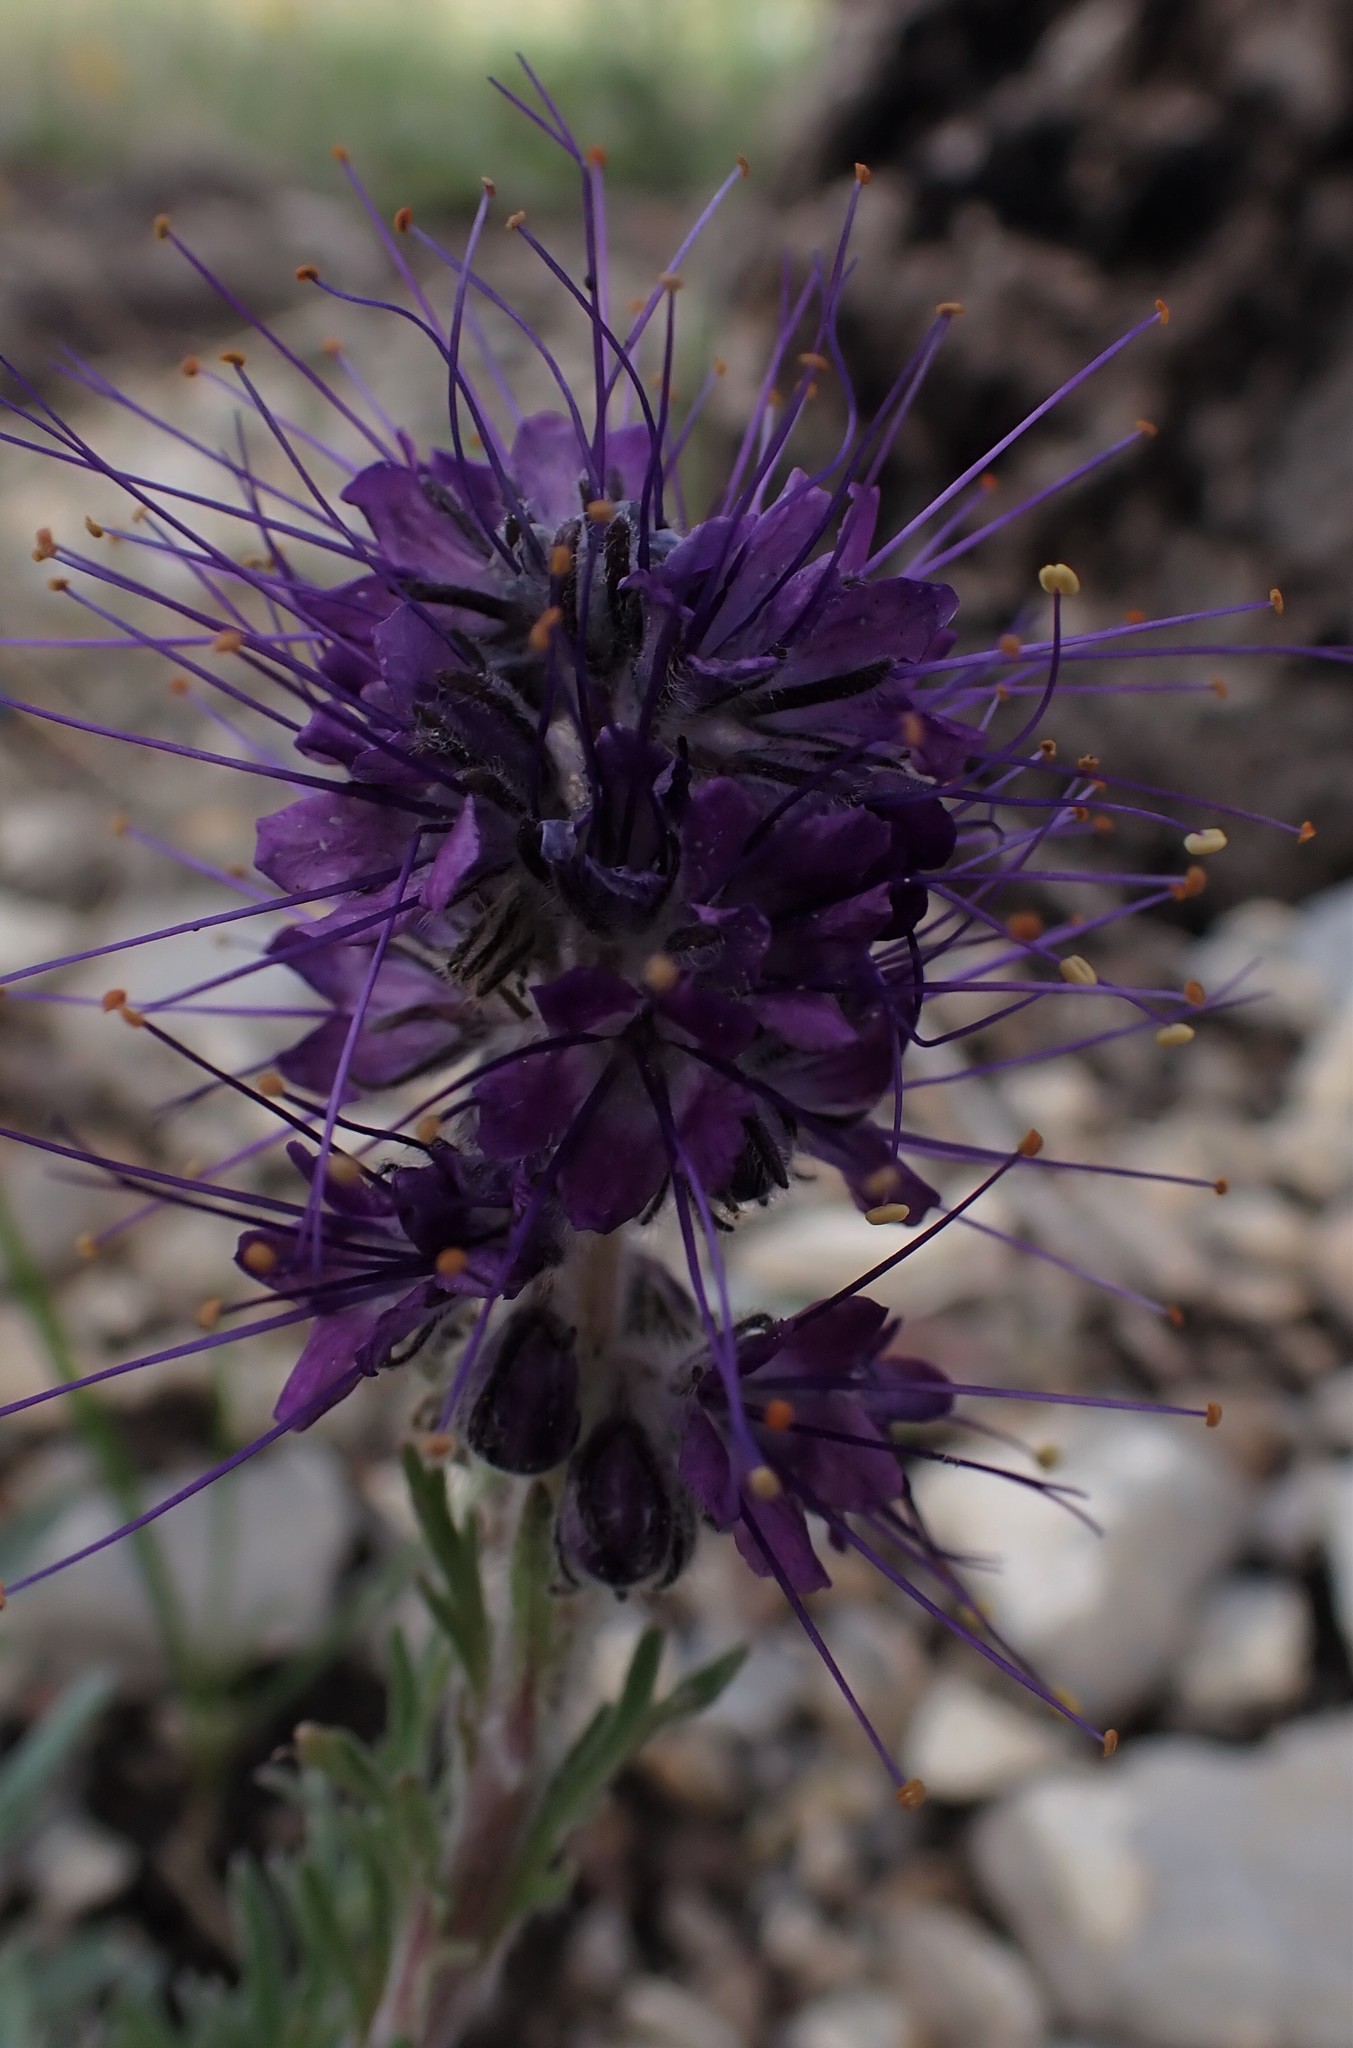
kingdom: Plantae
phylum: Tracheophyta
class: Magnoliopsida
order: Boraginales
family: Hydrophyllaceae
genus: Phacelia
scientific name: Phacelia sericea
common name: Silky phacelia
